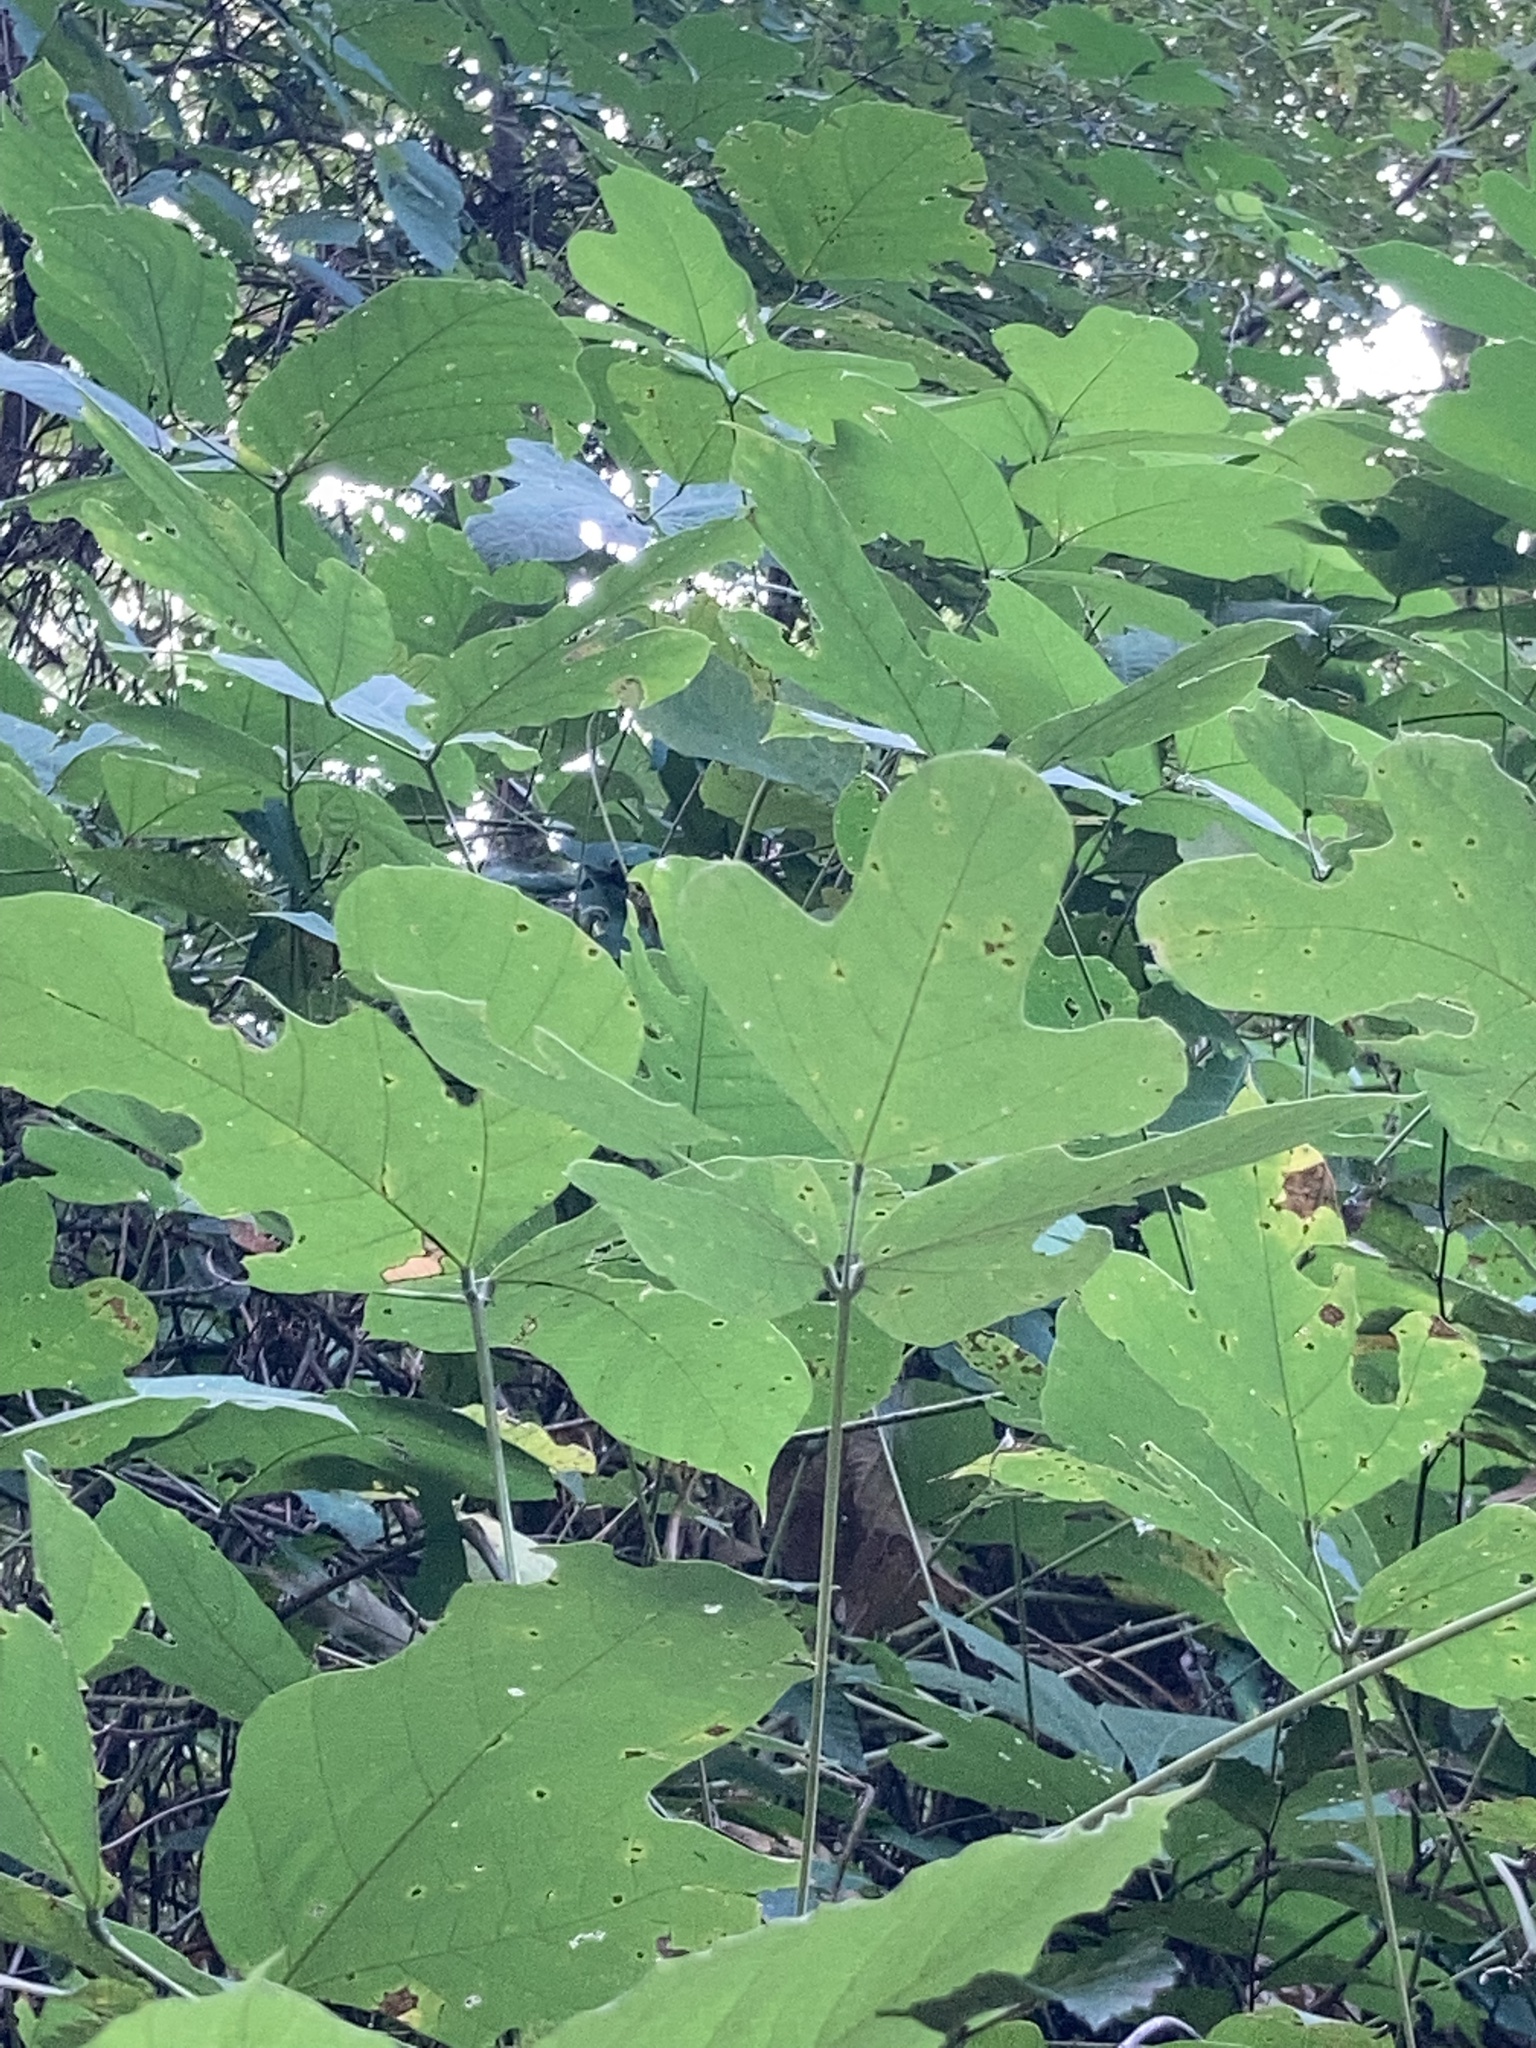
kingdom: Plantae
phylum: Tracheophyta
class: Magnoliopsida
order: Fabales
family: Fabaceae
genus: Pueraria
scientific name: Pueraria montana
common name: Kudzu
